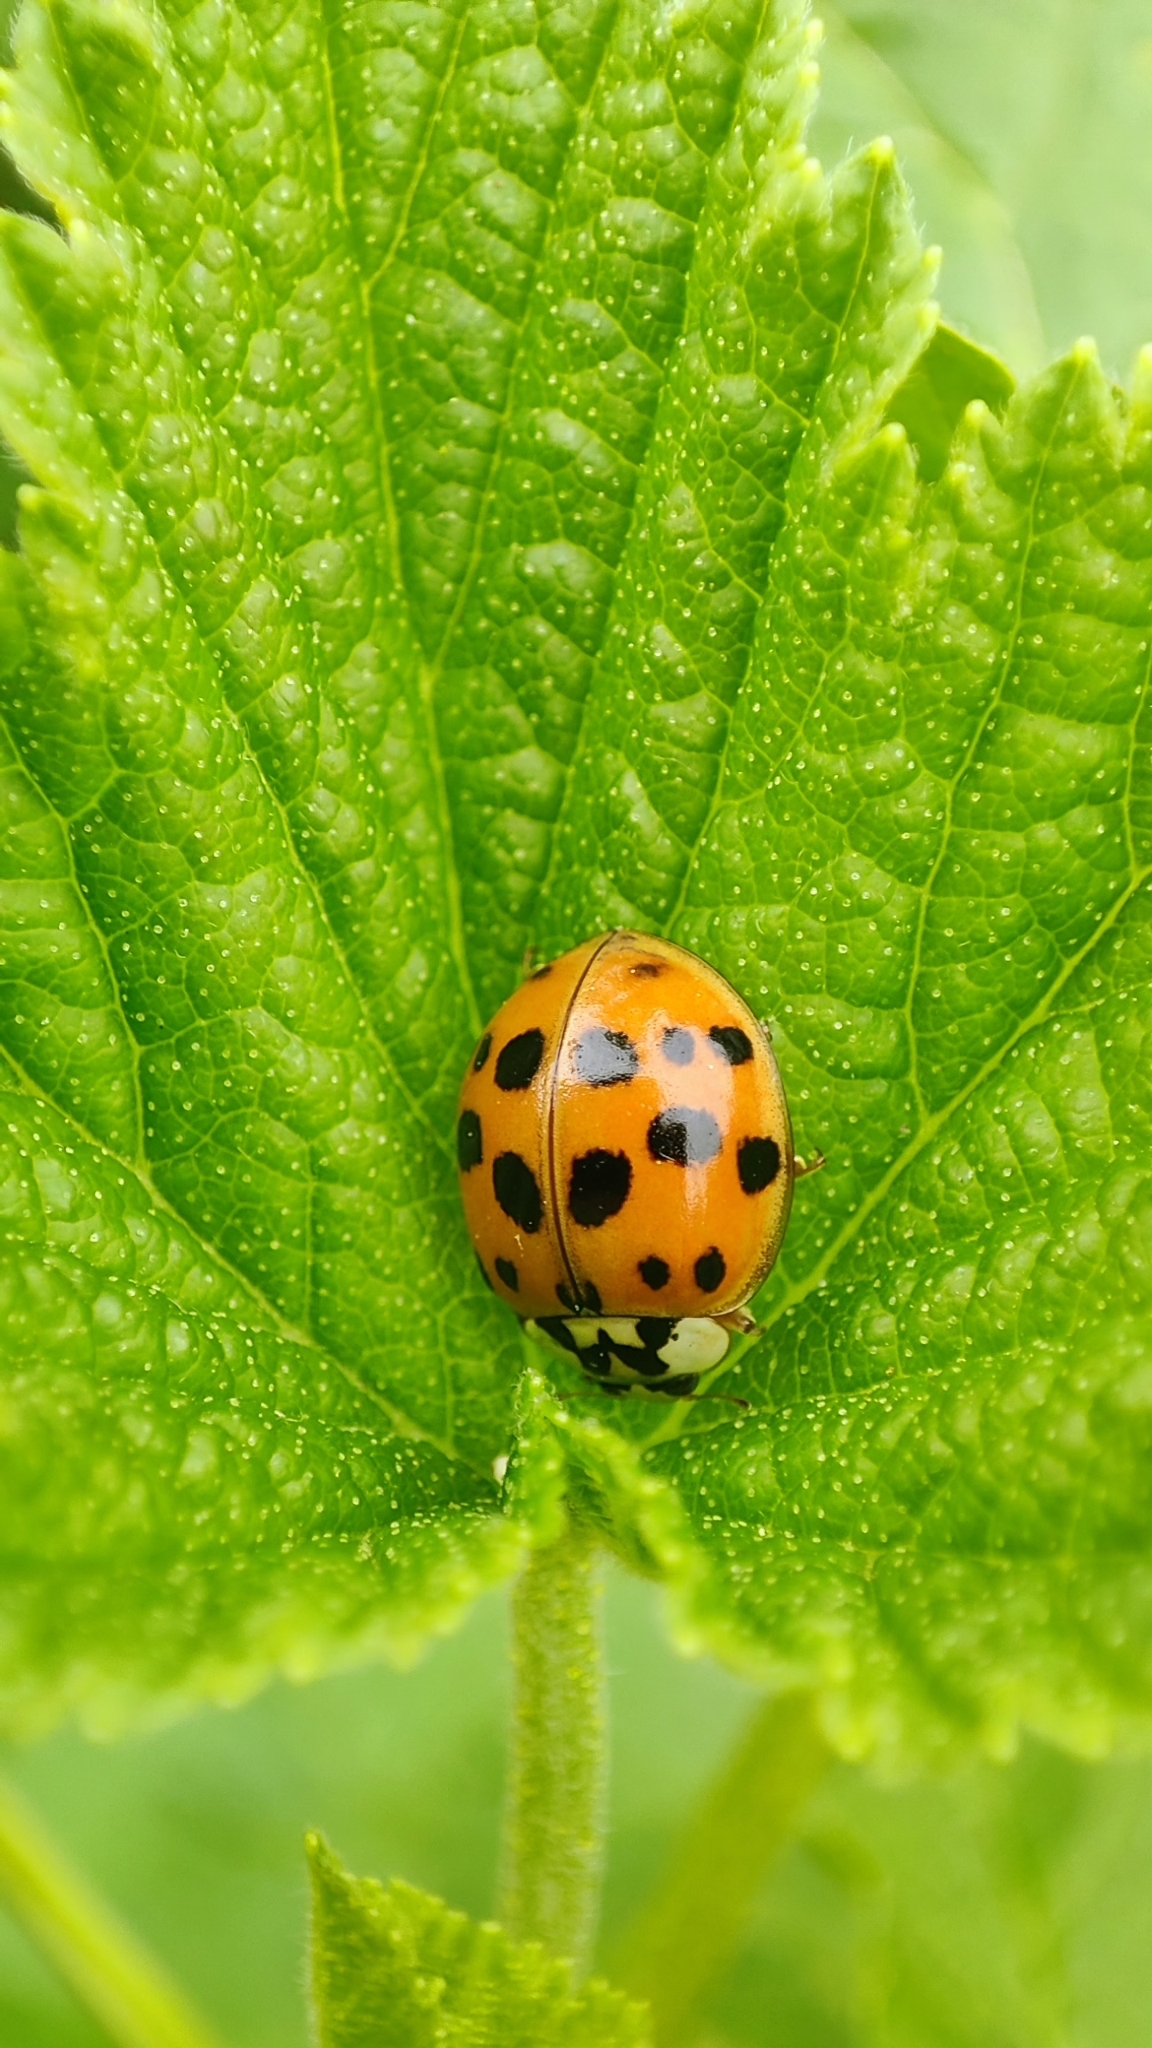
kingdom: Animalia
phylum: Arthropoda
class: Insecta
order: Coleoptera
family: Coccinellidae
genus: Harmonia
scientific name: Harmonia axyridis
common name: Harlequin ladybird
